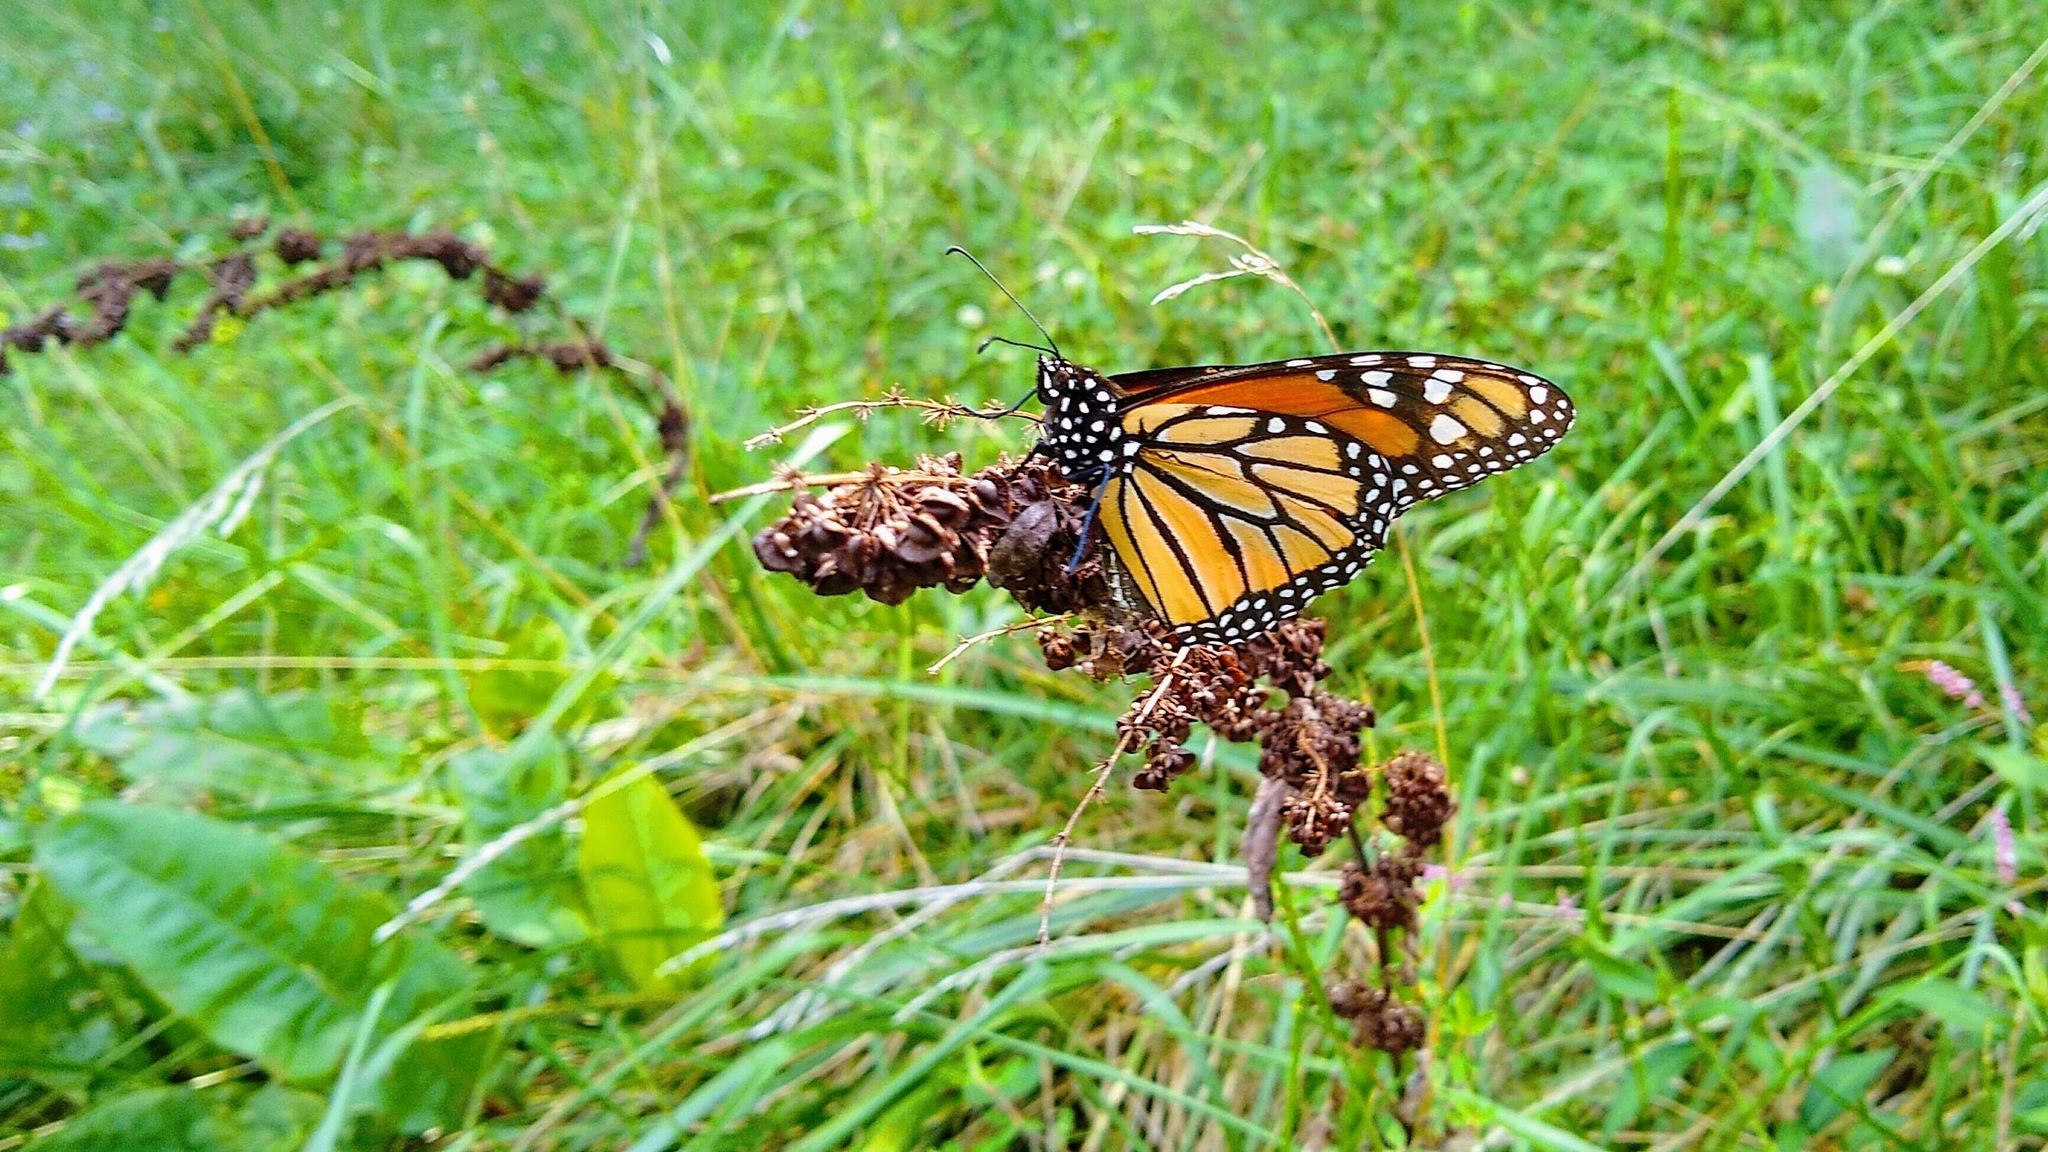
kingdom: Animalia
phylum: Arthropoda
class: Insecta
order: Lepidoptera
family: Nymphalidae
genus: Danaus
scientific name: Danaus plexippus
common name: Monarch
